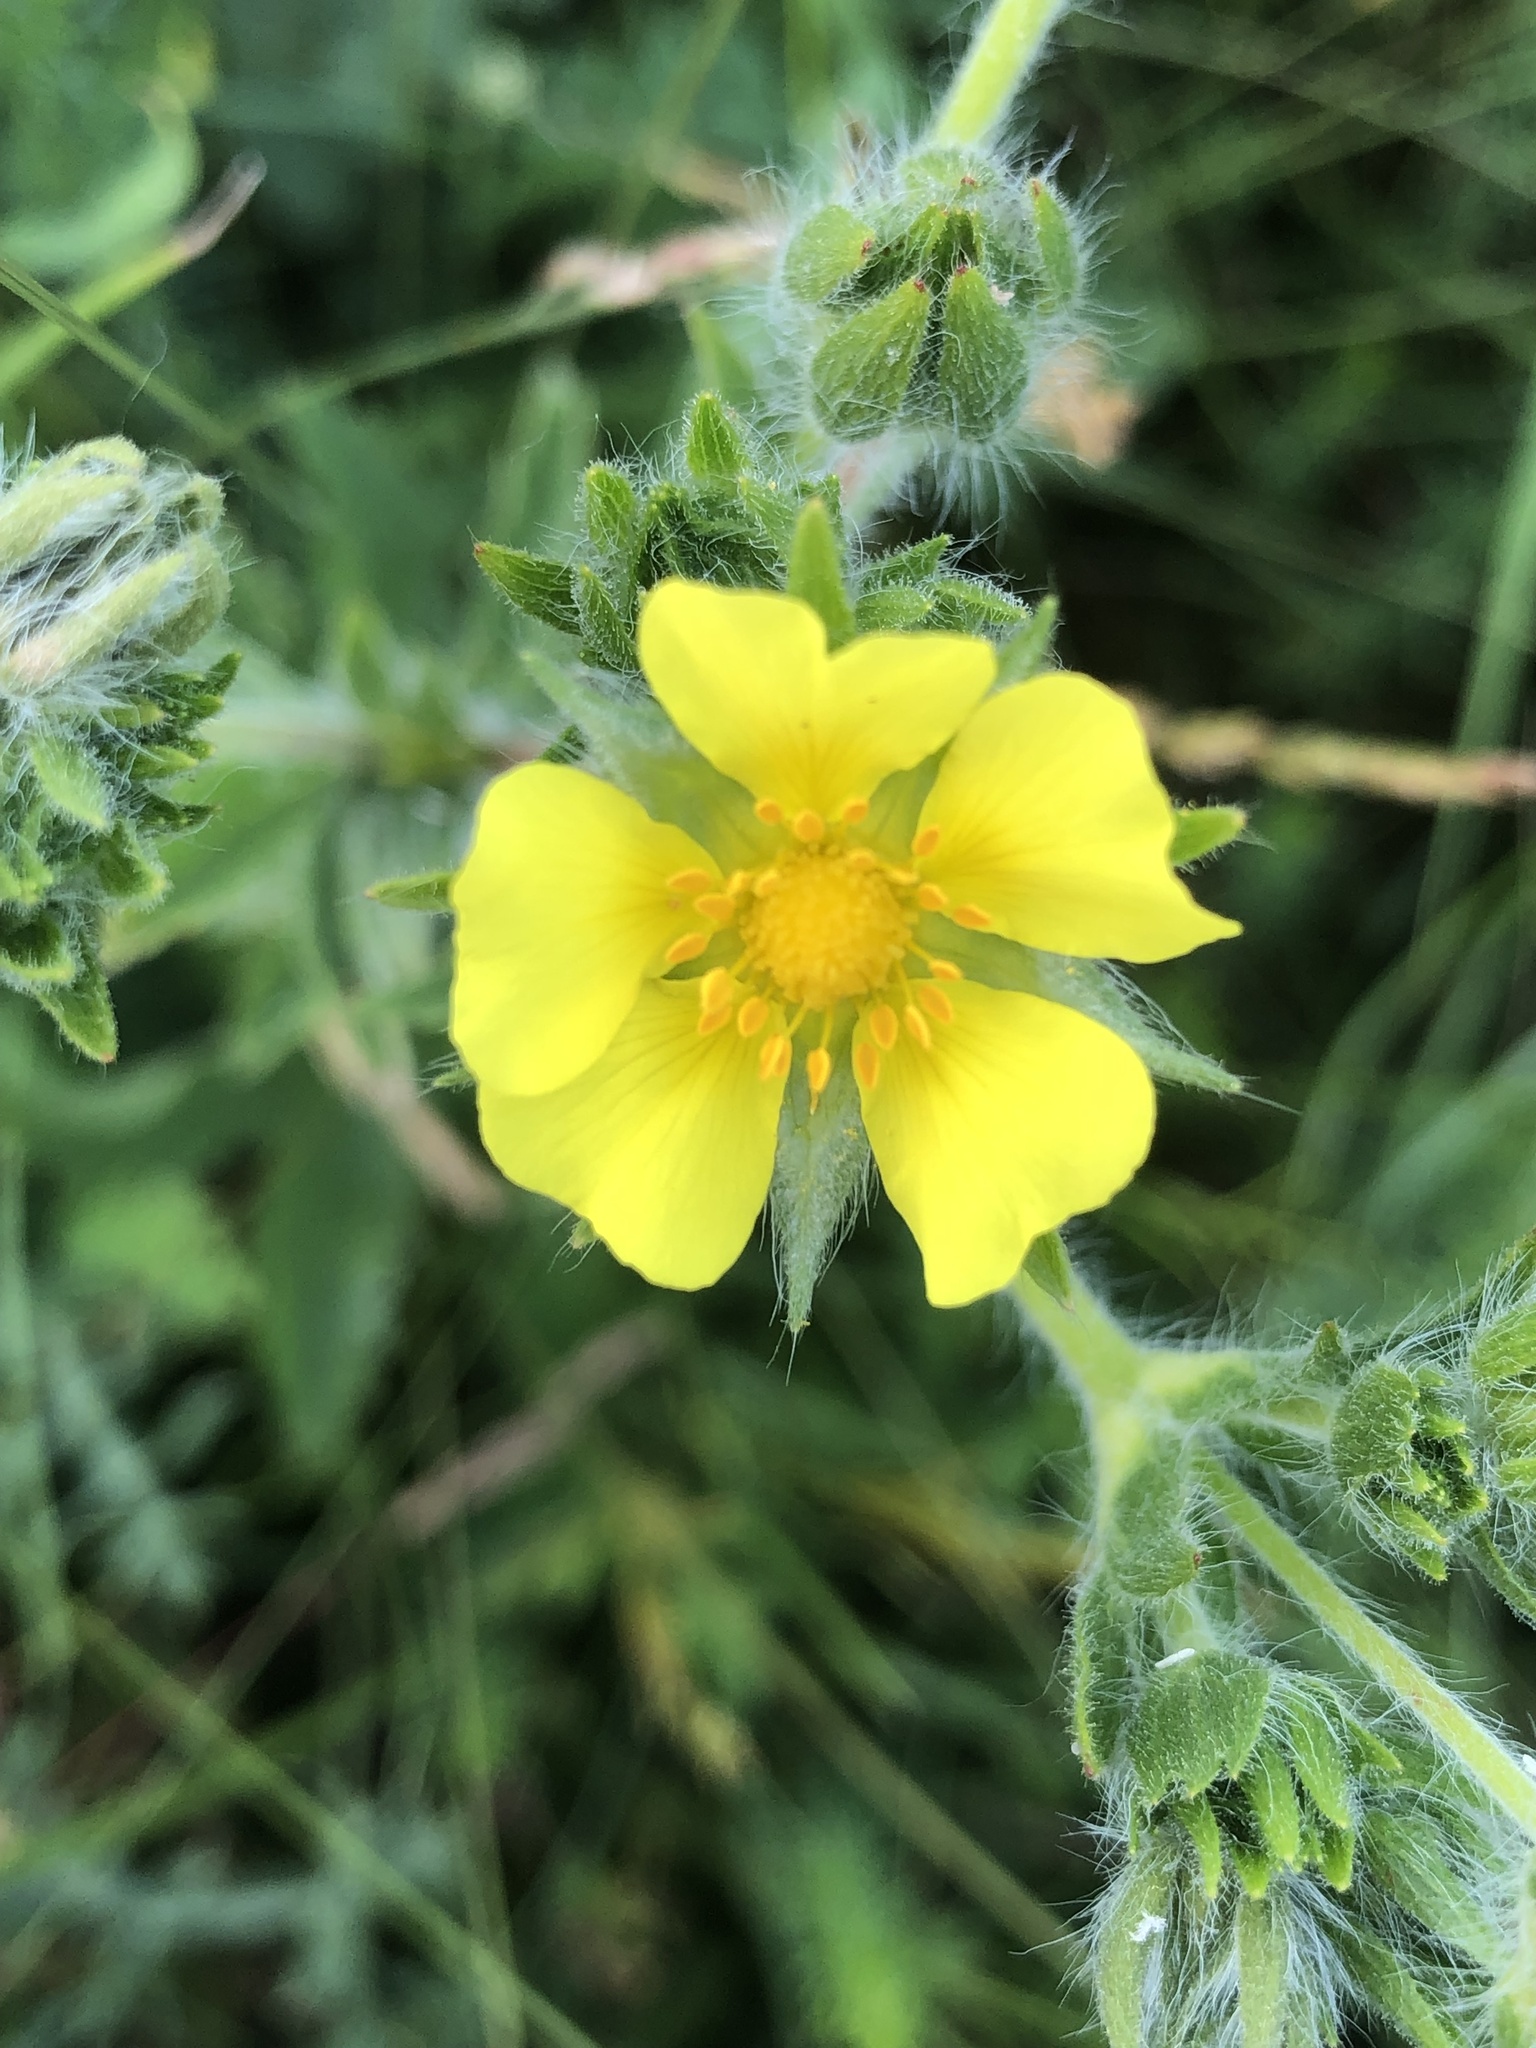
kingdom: Plantae
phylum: Tracheophyta
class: Magnoliopsida
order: Rosales
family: Rosaceae
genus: Potentilla
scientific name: Potentilla recta
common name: Sulphur cinquefoil
